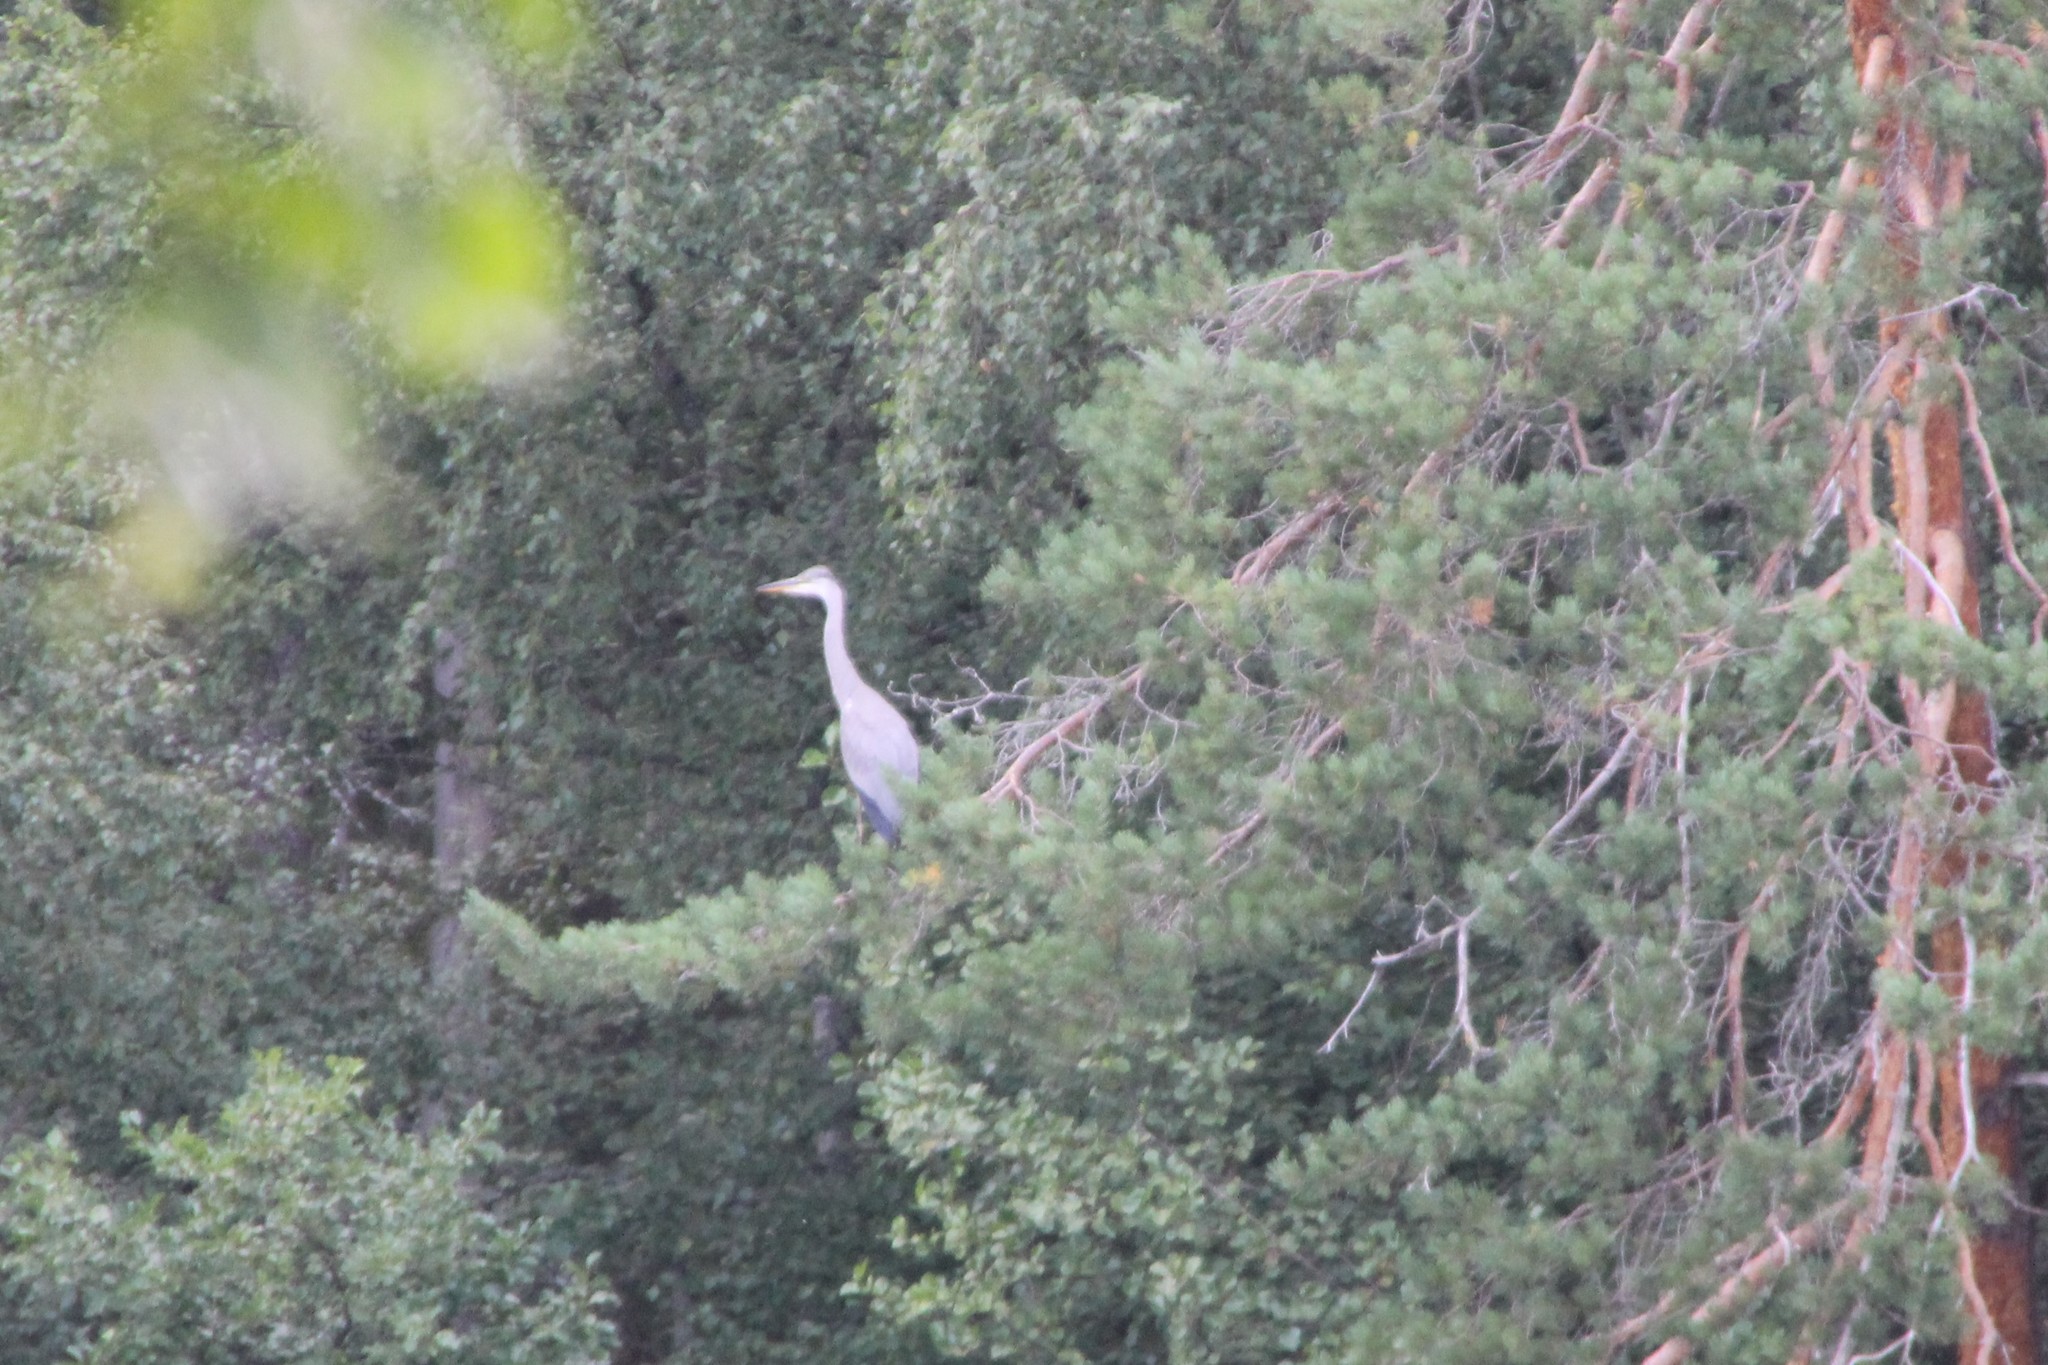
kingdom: Animalia
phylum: Chordata
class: Aves
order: Pelecaniformes
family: Ardeidae
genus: Ardea
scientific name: Ardea cinerea
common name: Grey heron
